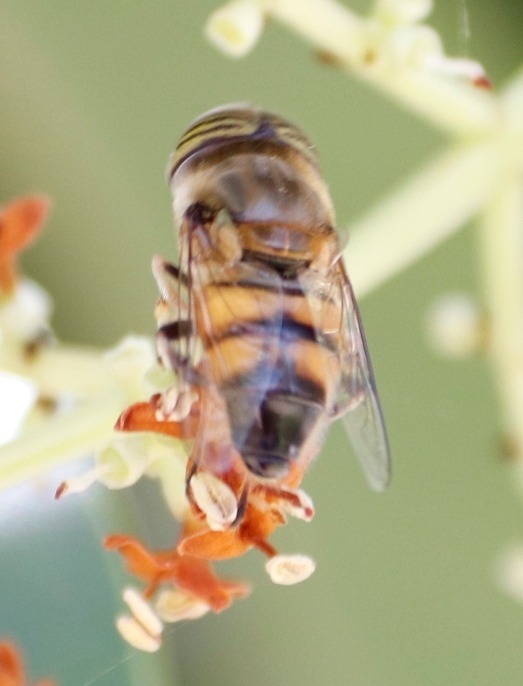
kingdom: Animalia
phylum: Arthropoda
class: Insecta
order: Diptera
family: Syrphidae
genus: Eristalinus
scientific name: Eristalinus taeniops
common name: Syrphid fly
